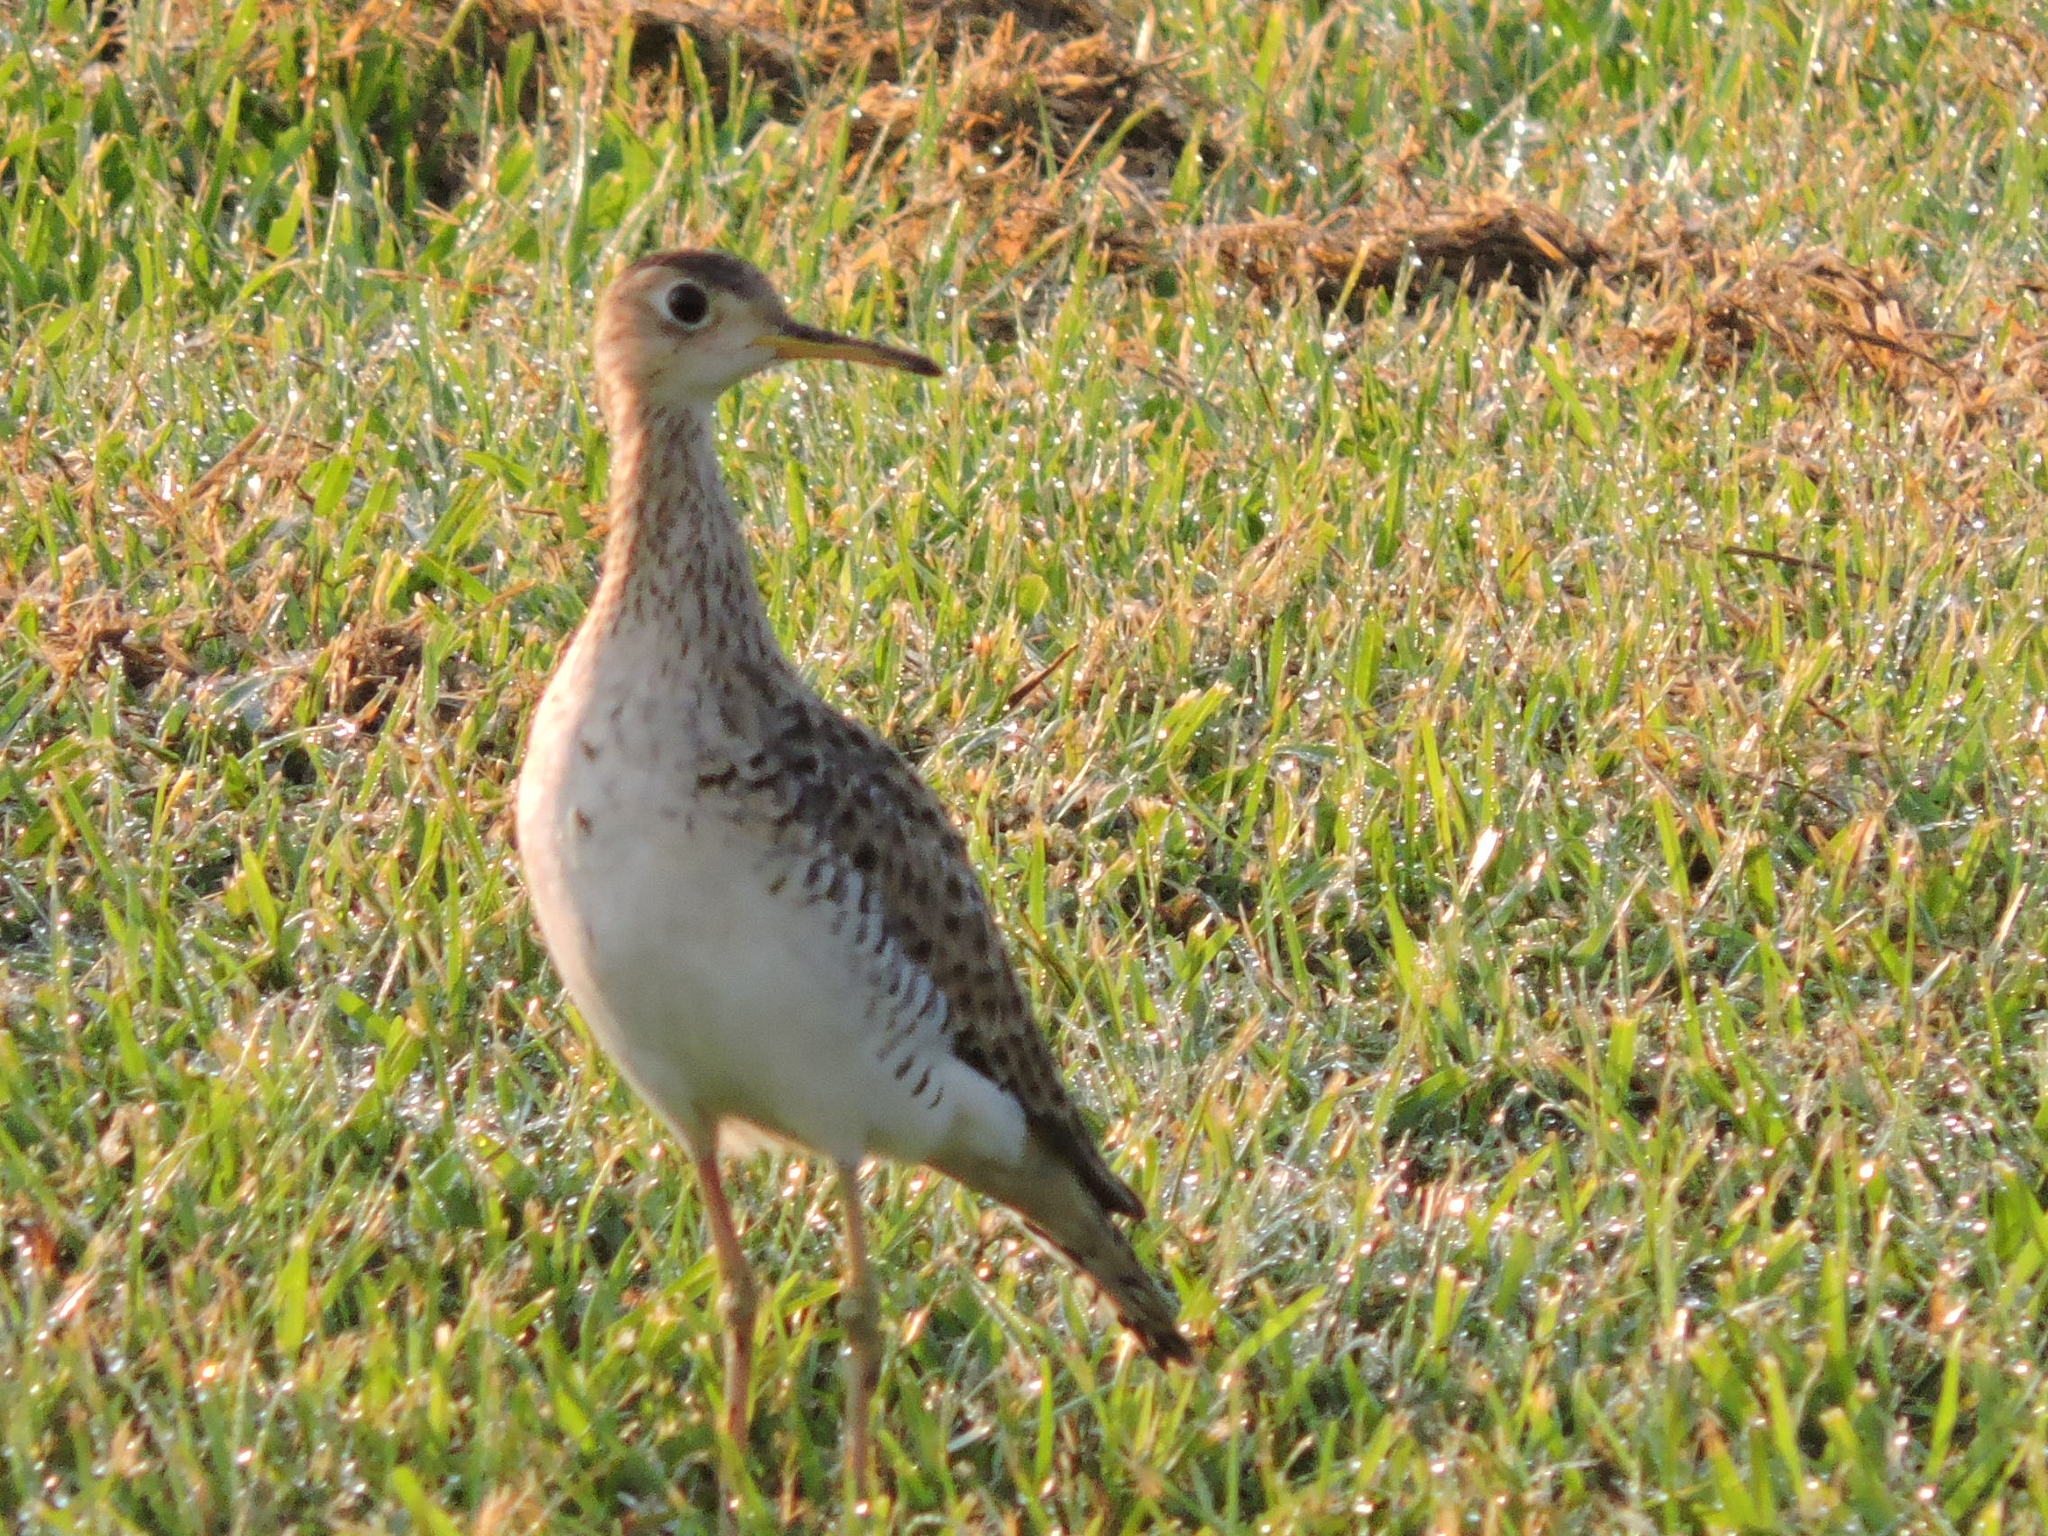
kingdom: Animalia
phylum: Chordata
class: Aves
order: Charadriiformes
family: Scolopacidae
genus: Bartramia
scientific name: Bartramia longicauda
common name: Upland sandpiper
